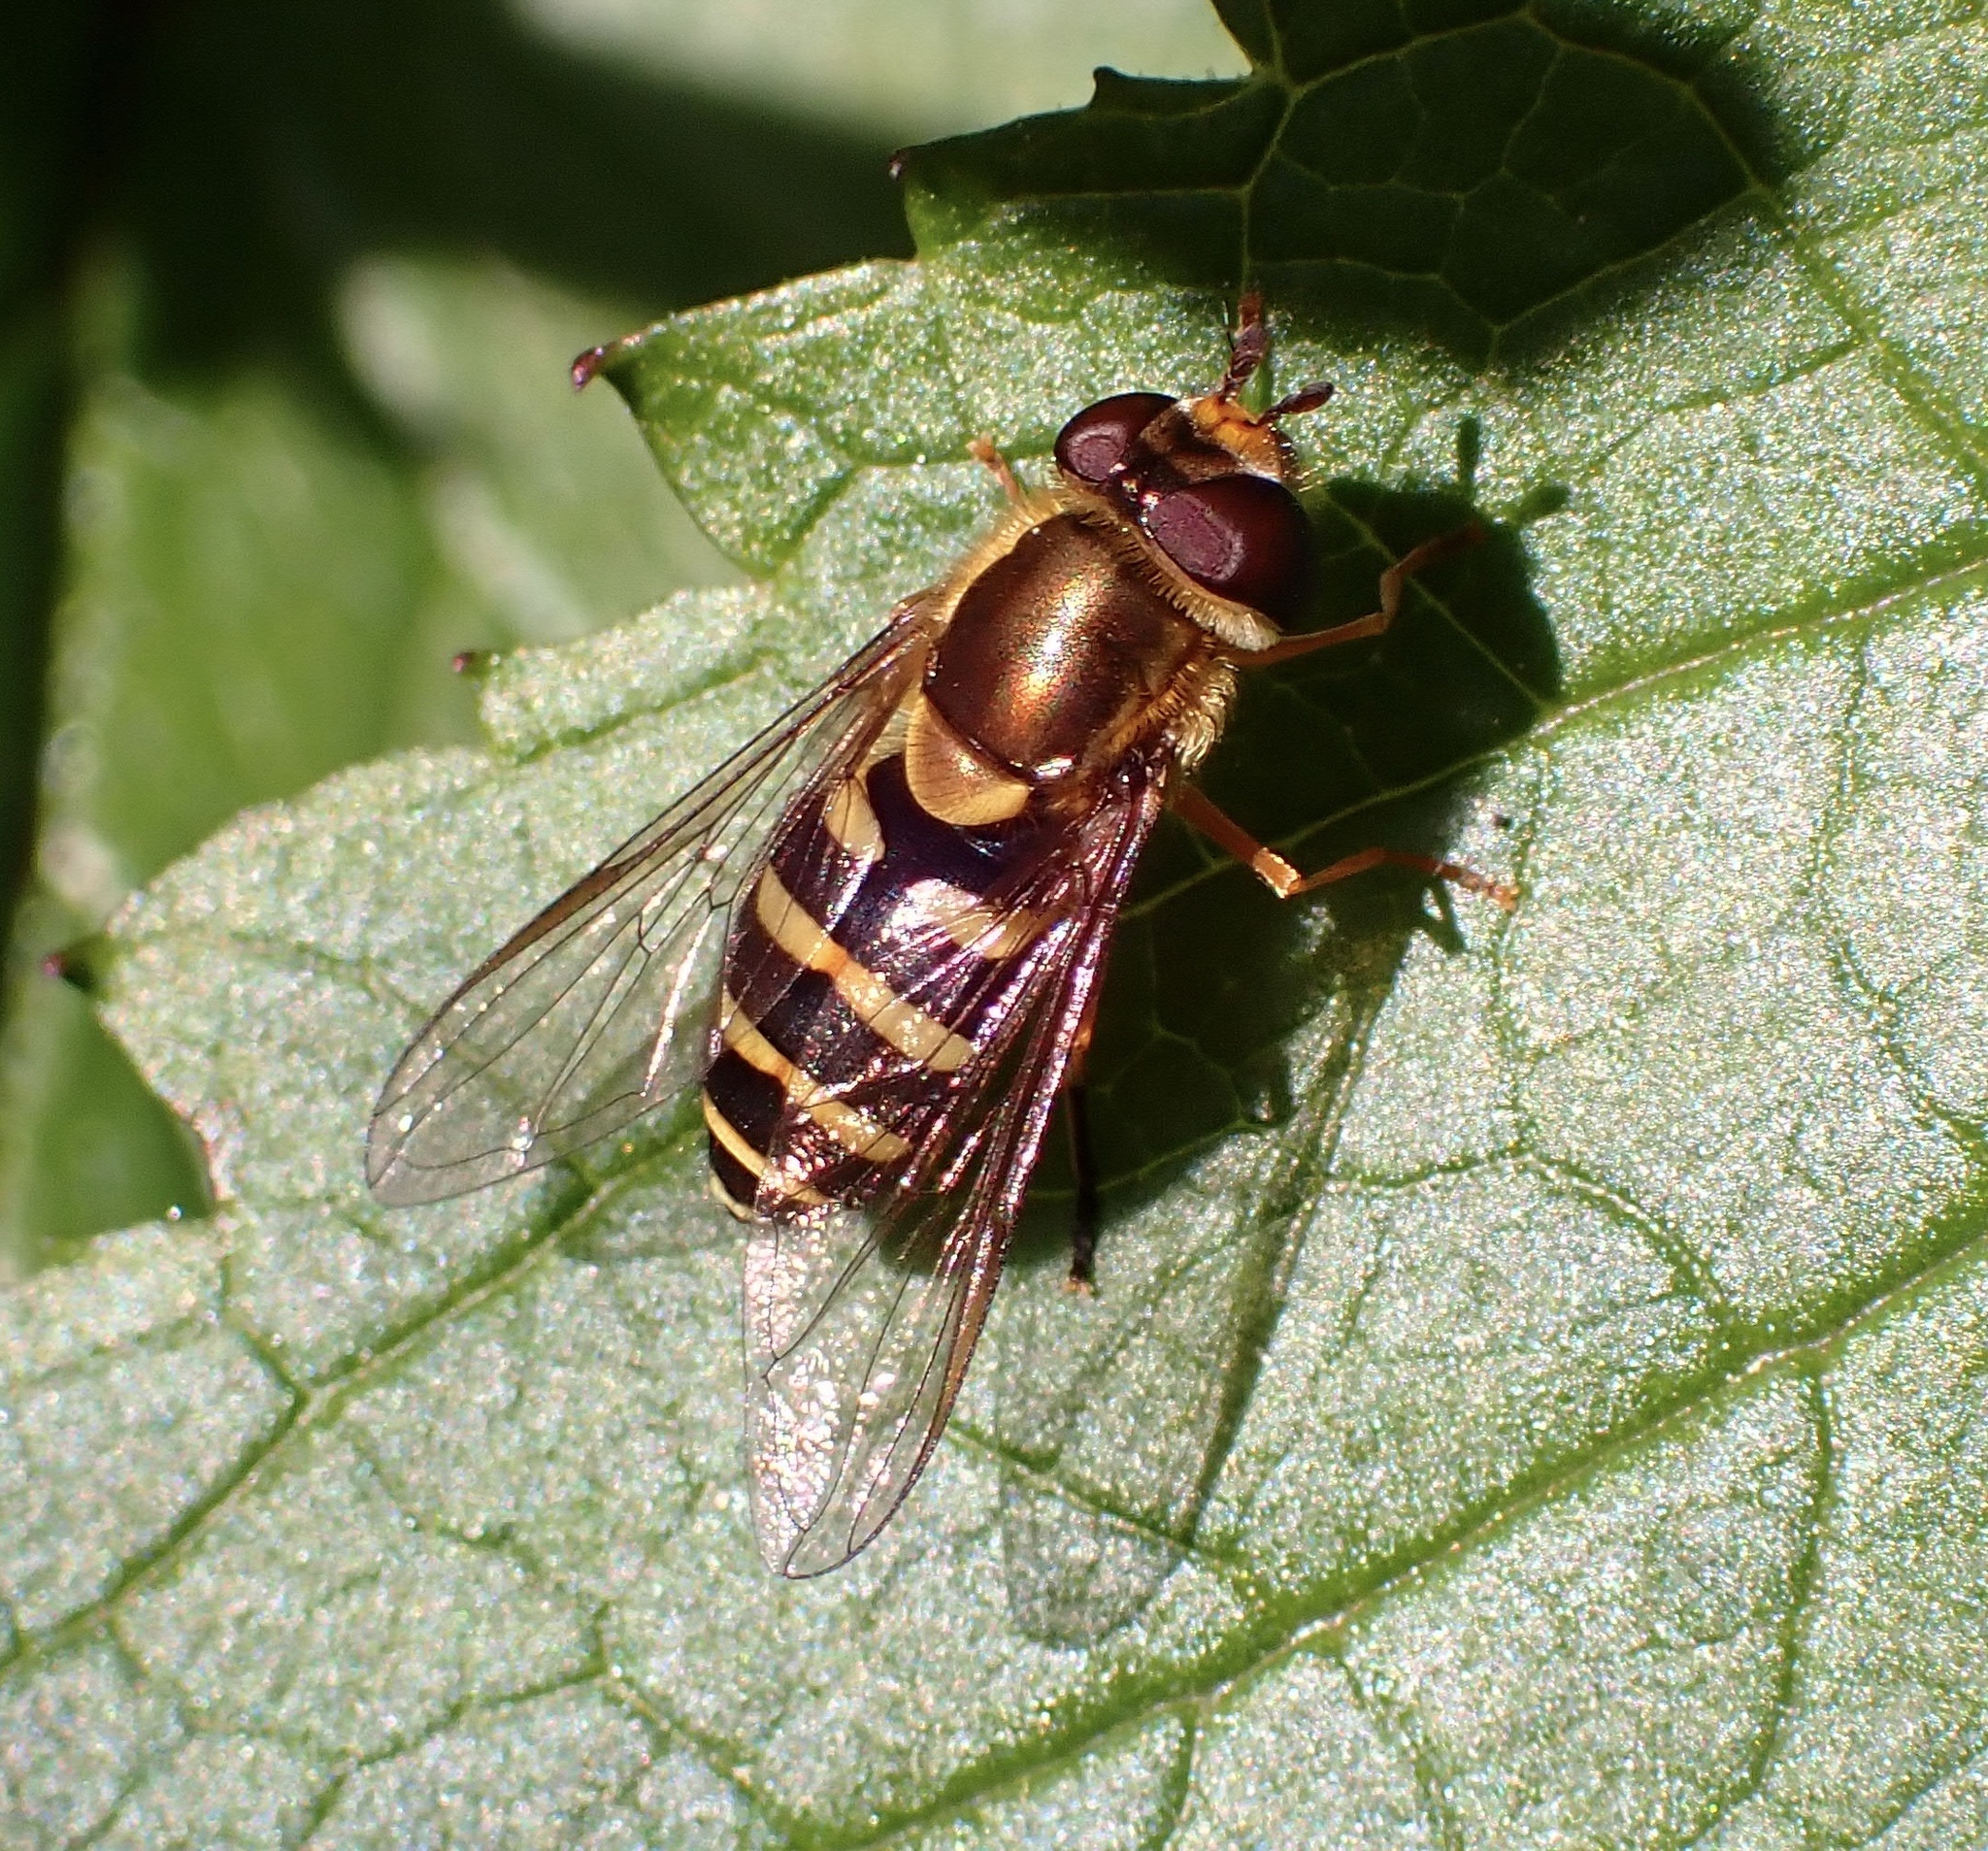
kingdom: Animalia
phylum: Arthropoda
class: Insecta
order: Diptera
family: Syrphidae
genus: Syrphus
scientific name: Syrphus opinator
